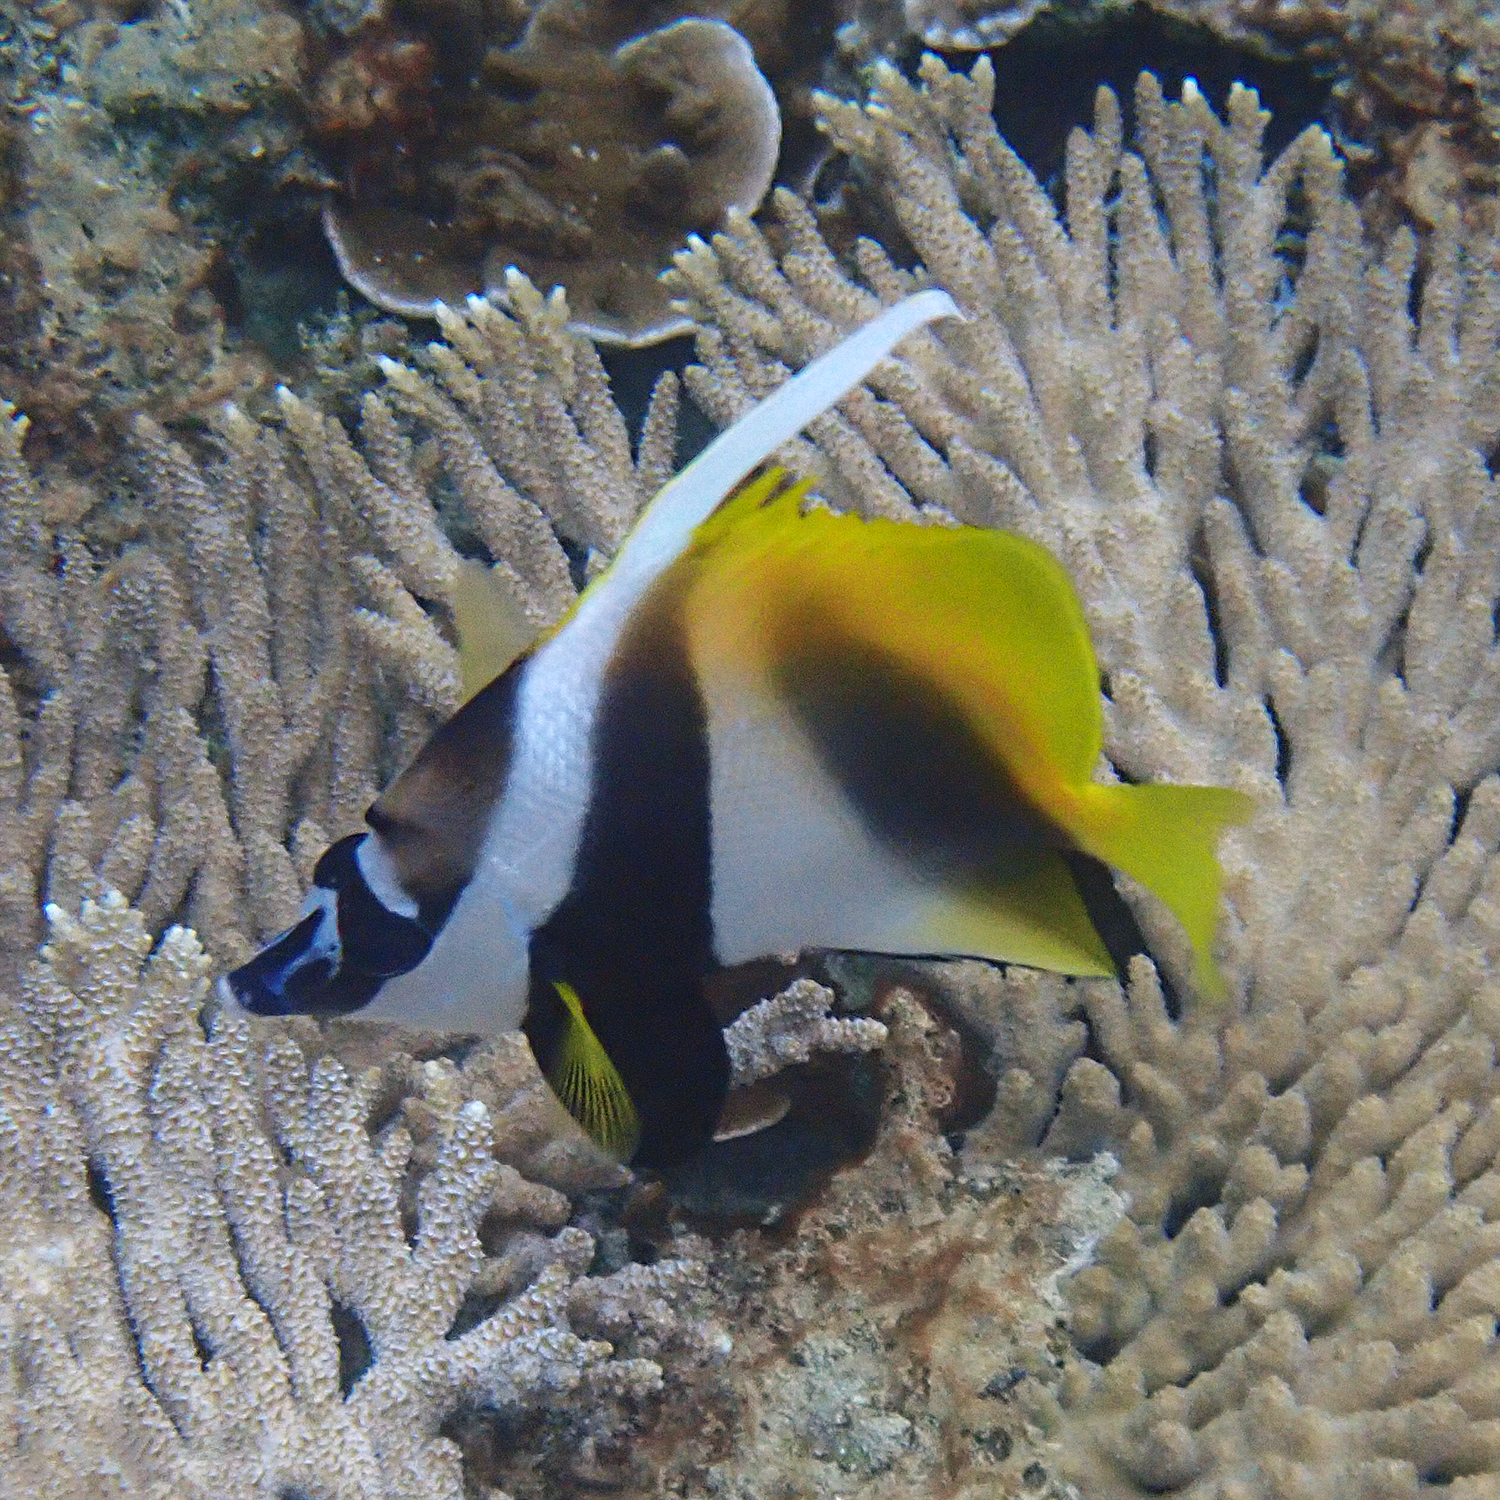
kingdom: Animalia
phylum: Chordata
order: Perciformes
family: Chaetodontidae
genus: Heniochus
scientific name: Heniochus monoceros
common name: Masked bannerfish
